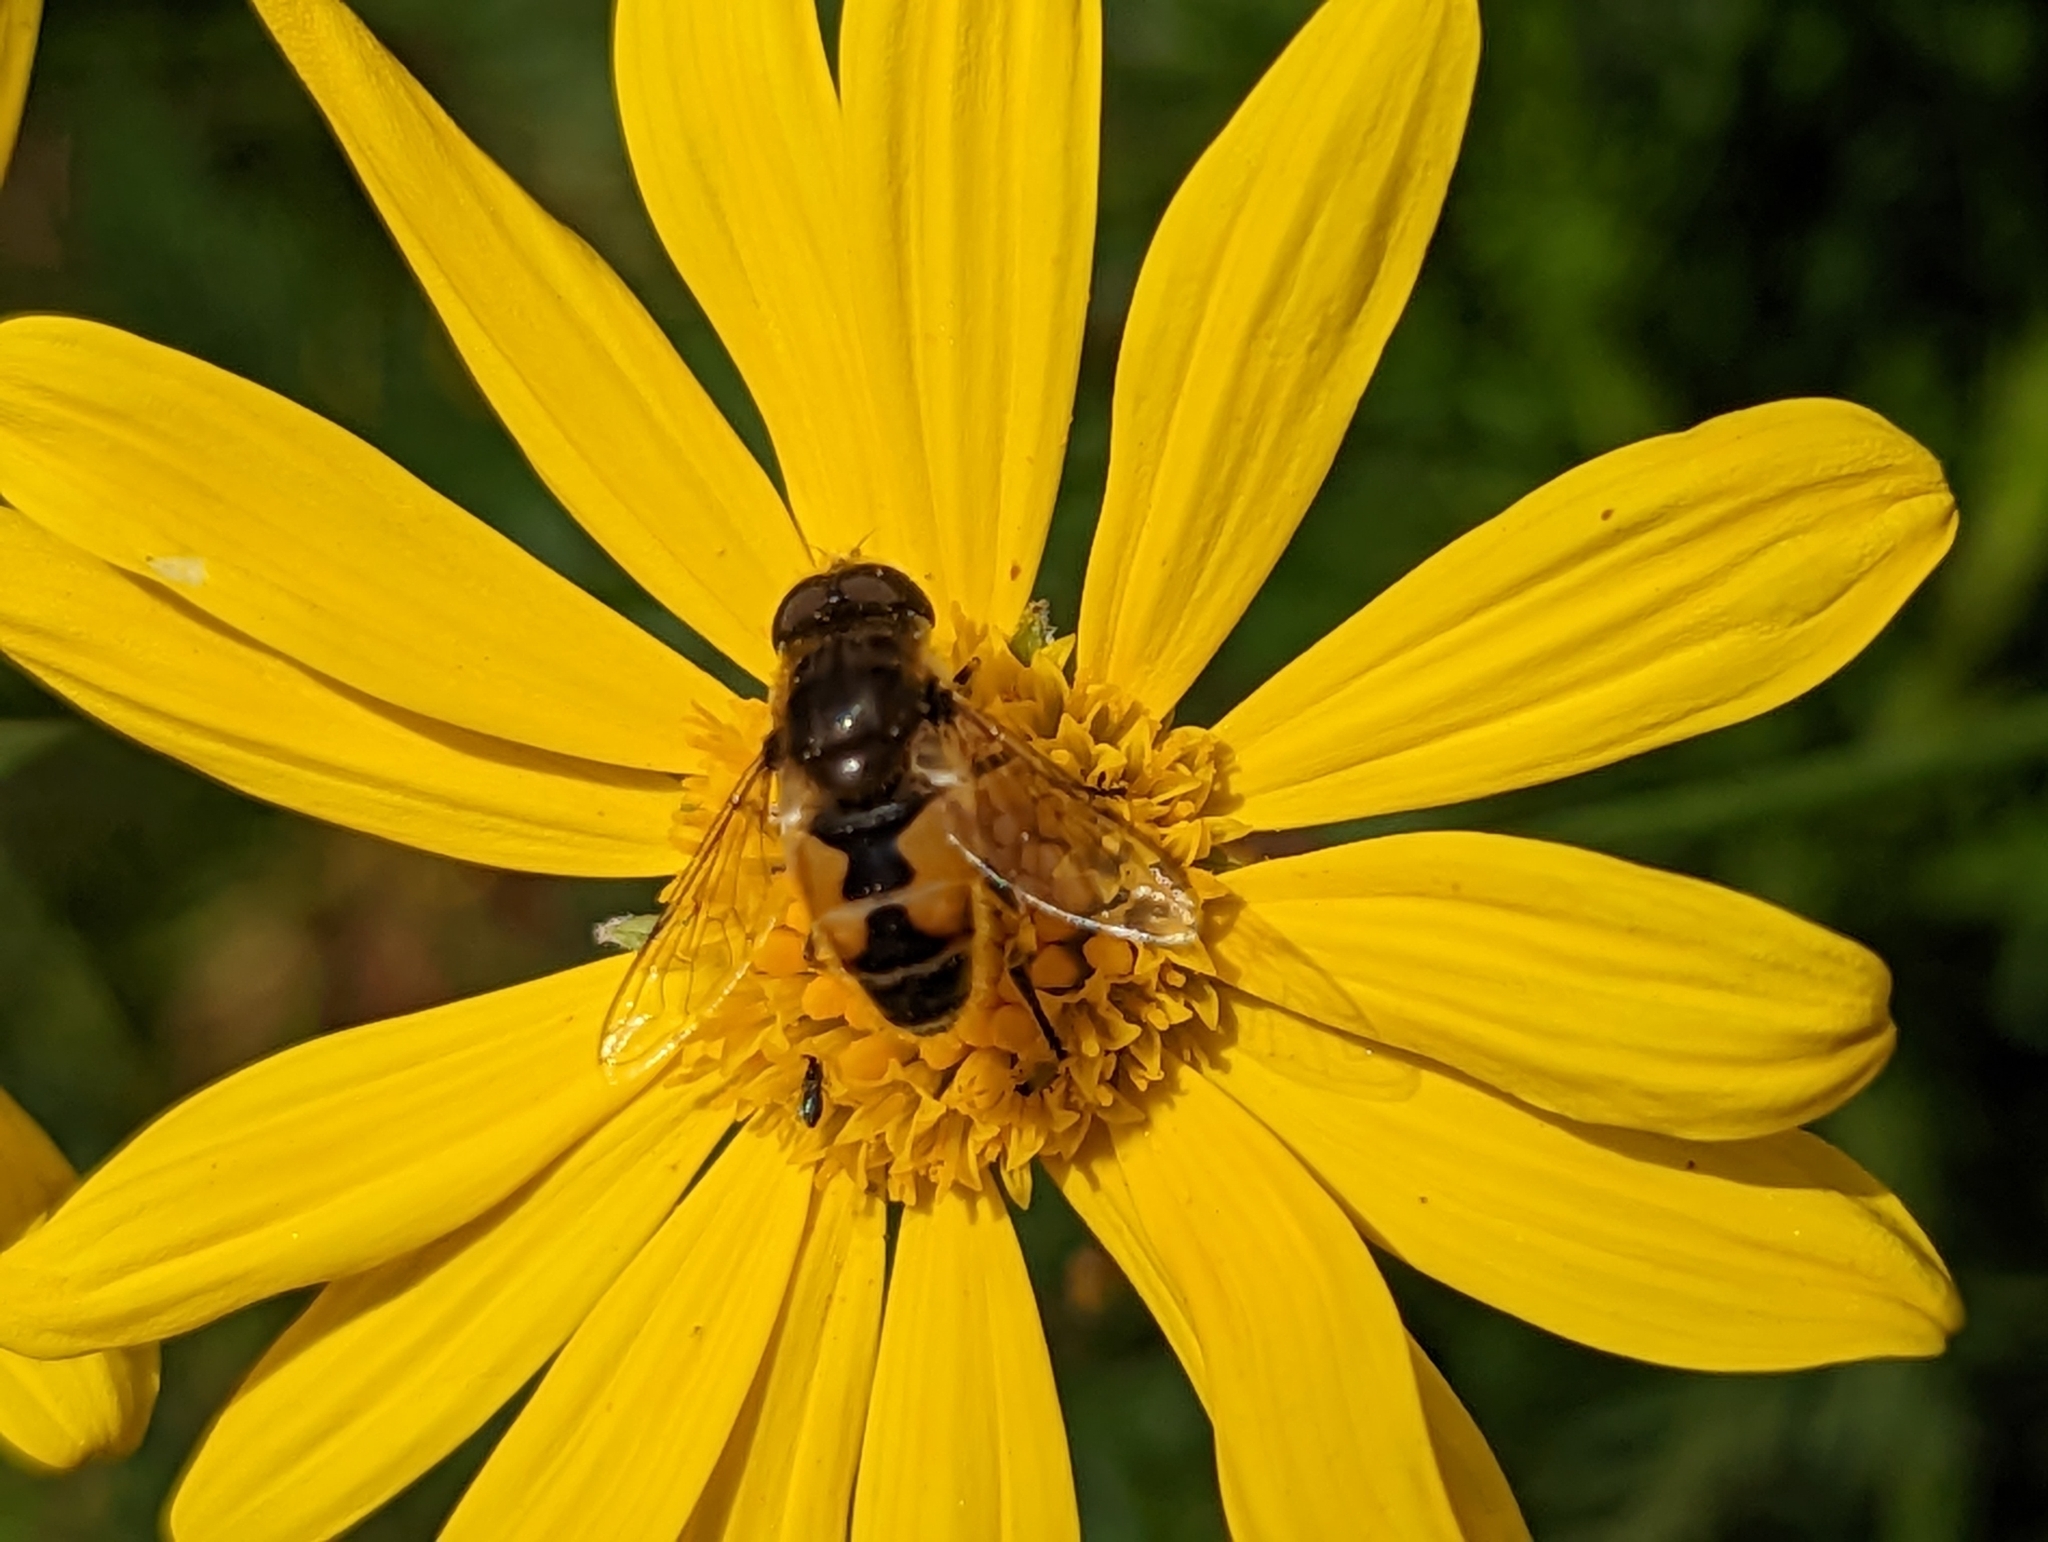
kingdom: Animalia
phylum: Arthropoda
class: Insecta
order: Diptera
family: Syrphidae
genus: Eristalis
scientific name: Eristalis arbustorum
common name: Hover fly
